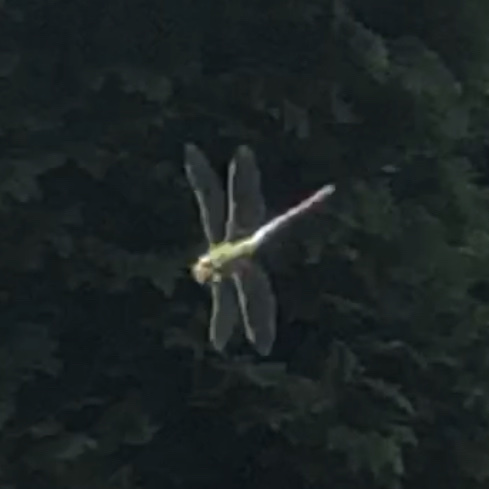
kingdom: Animalia
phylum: Arthropoda
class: Insecta
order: Odonata
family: Aeshnidae
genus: Anax
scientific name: Anax imperator
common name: Emperor dragonfly
